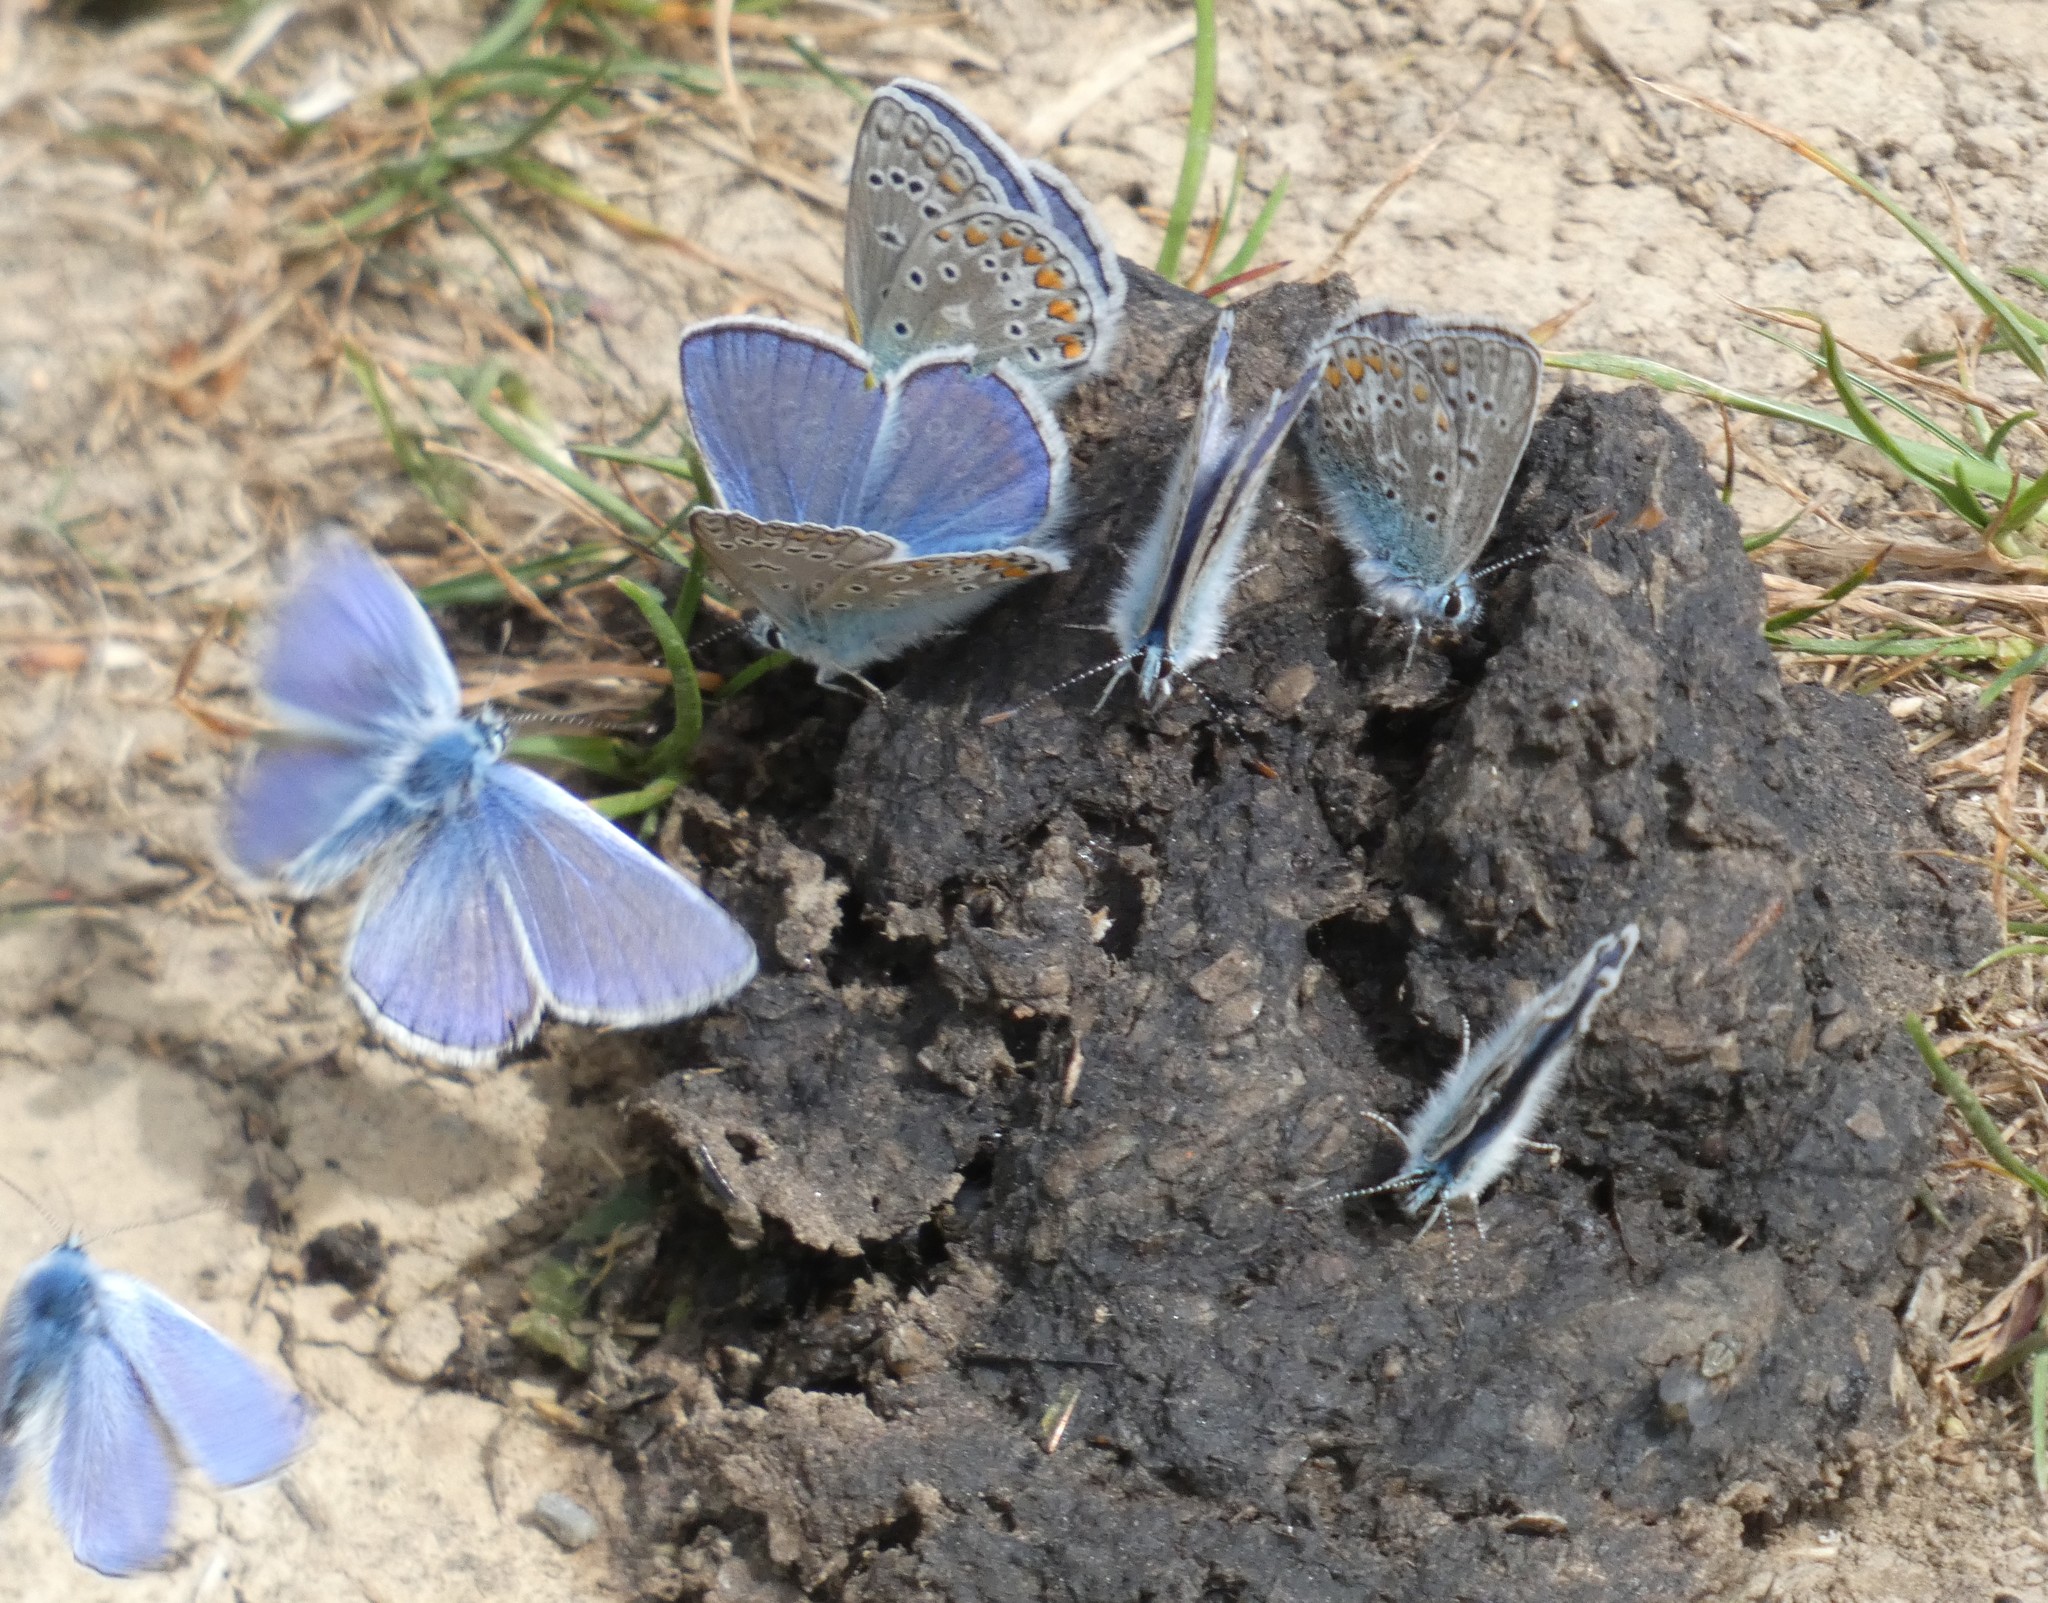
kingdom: Animalia
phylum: Arthropoda
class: Insecta
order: Lepidoptera
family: Lycaenidae
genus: Polyommatus
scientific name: Polyommatus icarus
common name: Common blue
